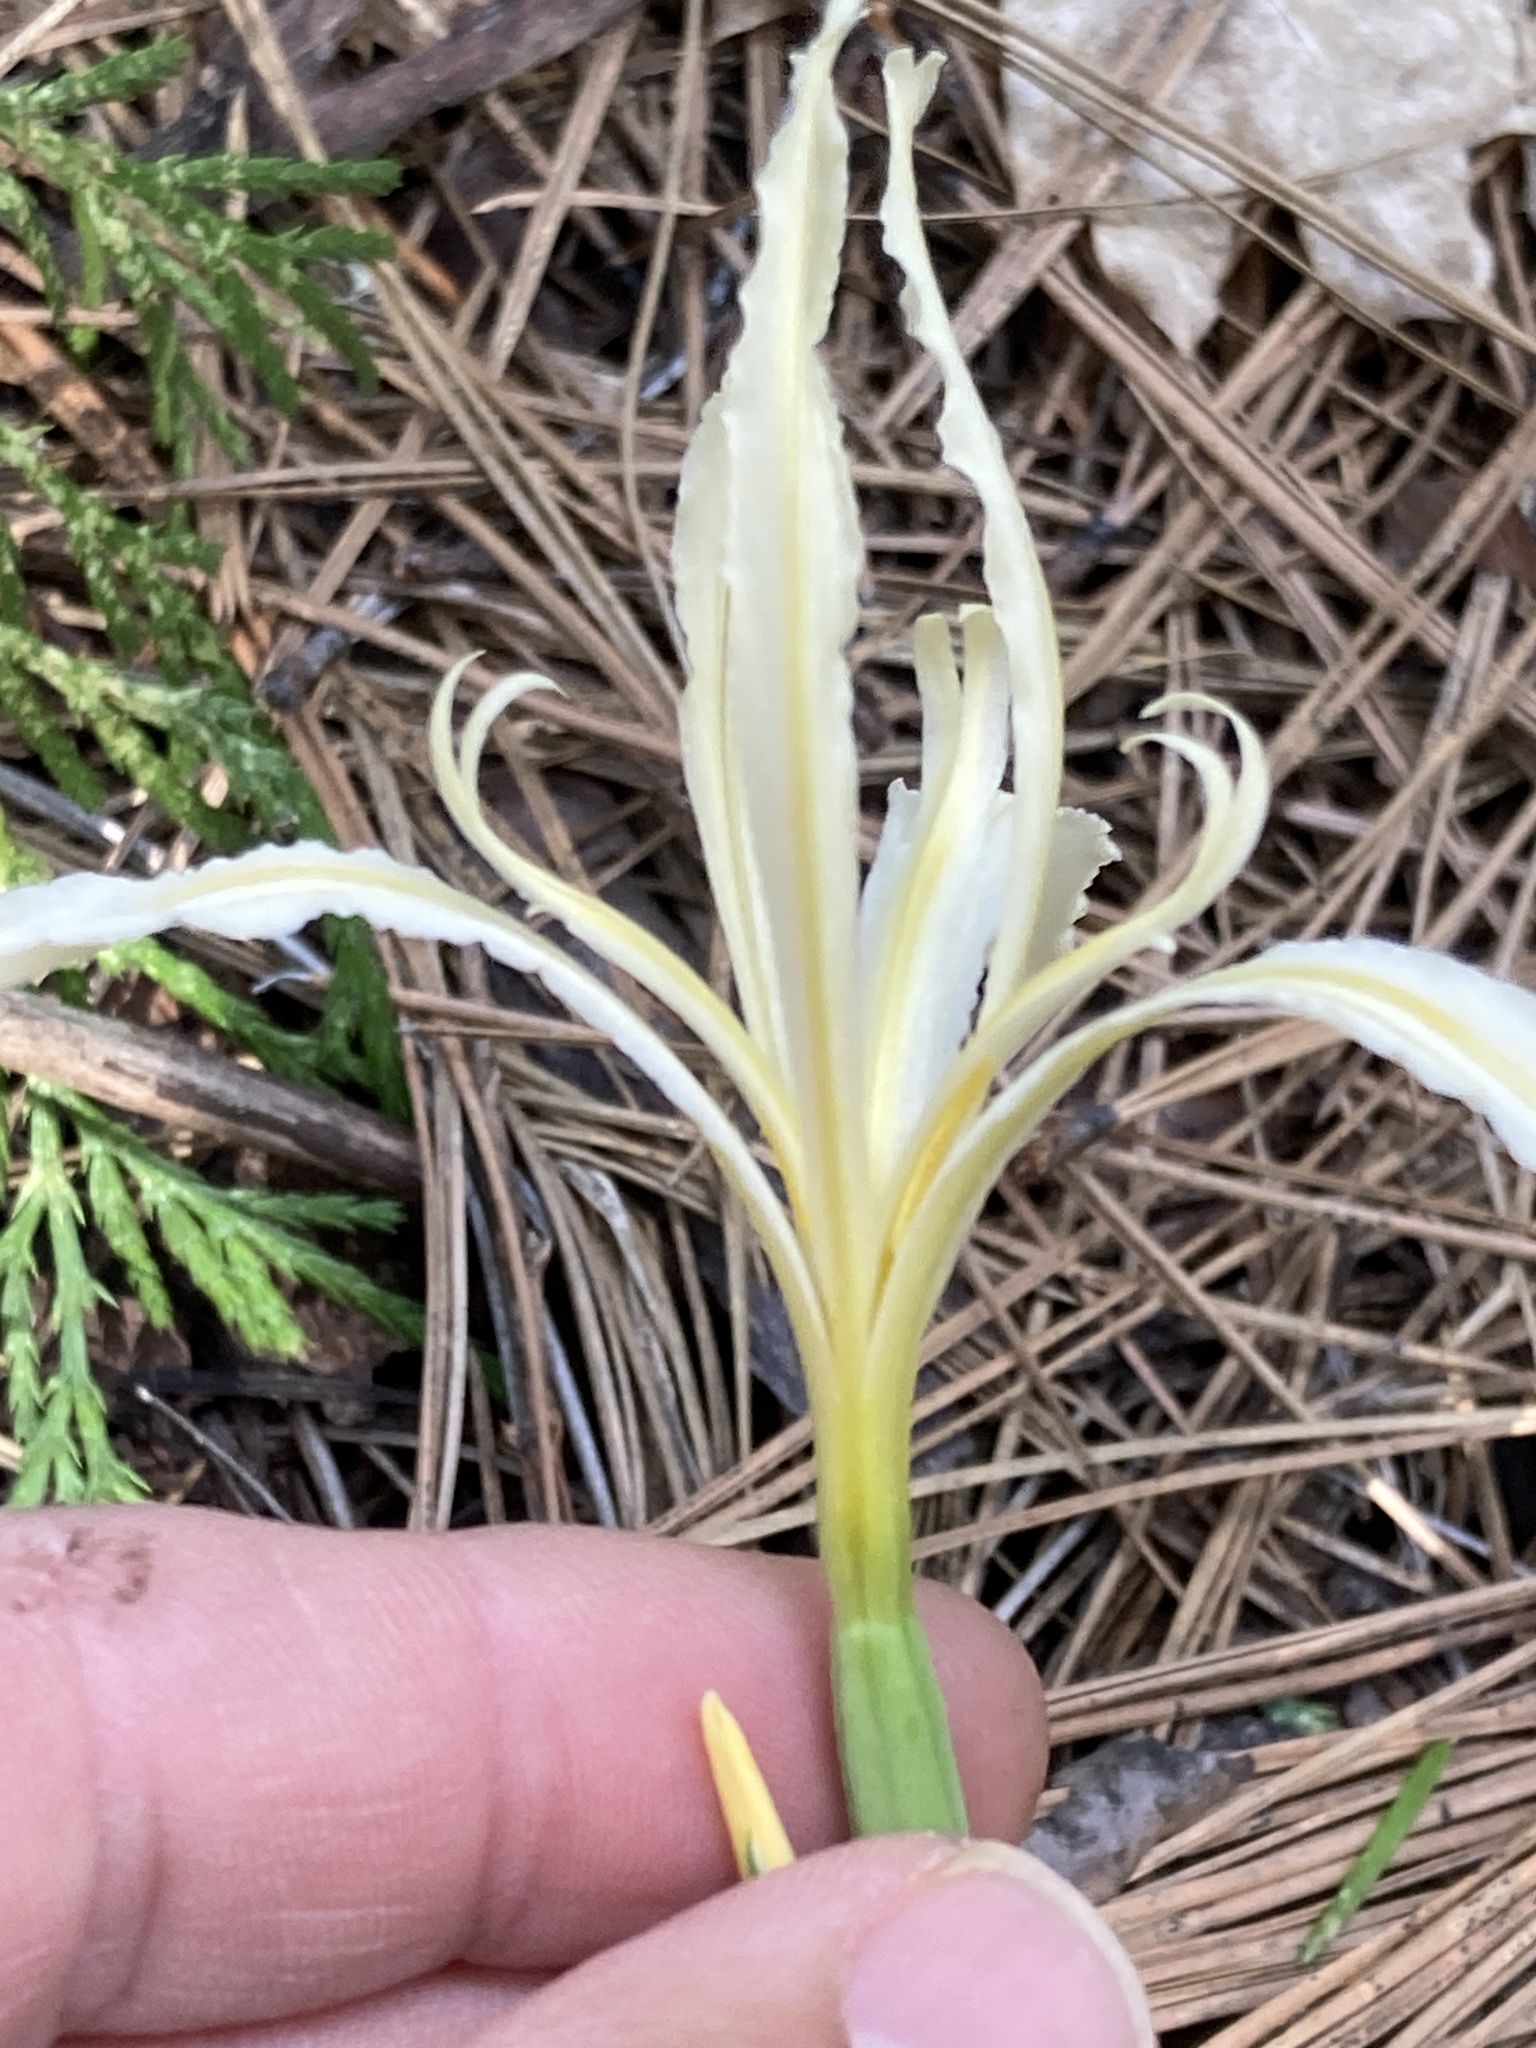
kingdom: Plantae
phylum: Tracheophyta
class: Liliopsida
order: Asparagales
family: Iridaceae
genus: Iris
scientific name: Iris hartwegii
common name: Sierra iris
